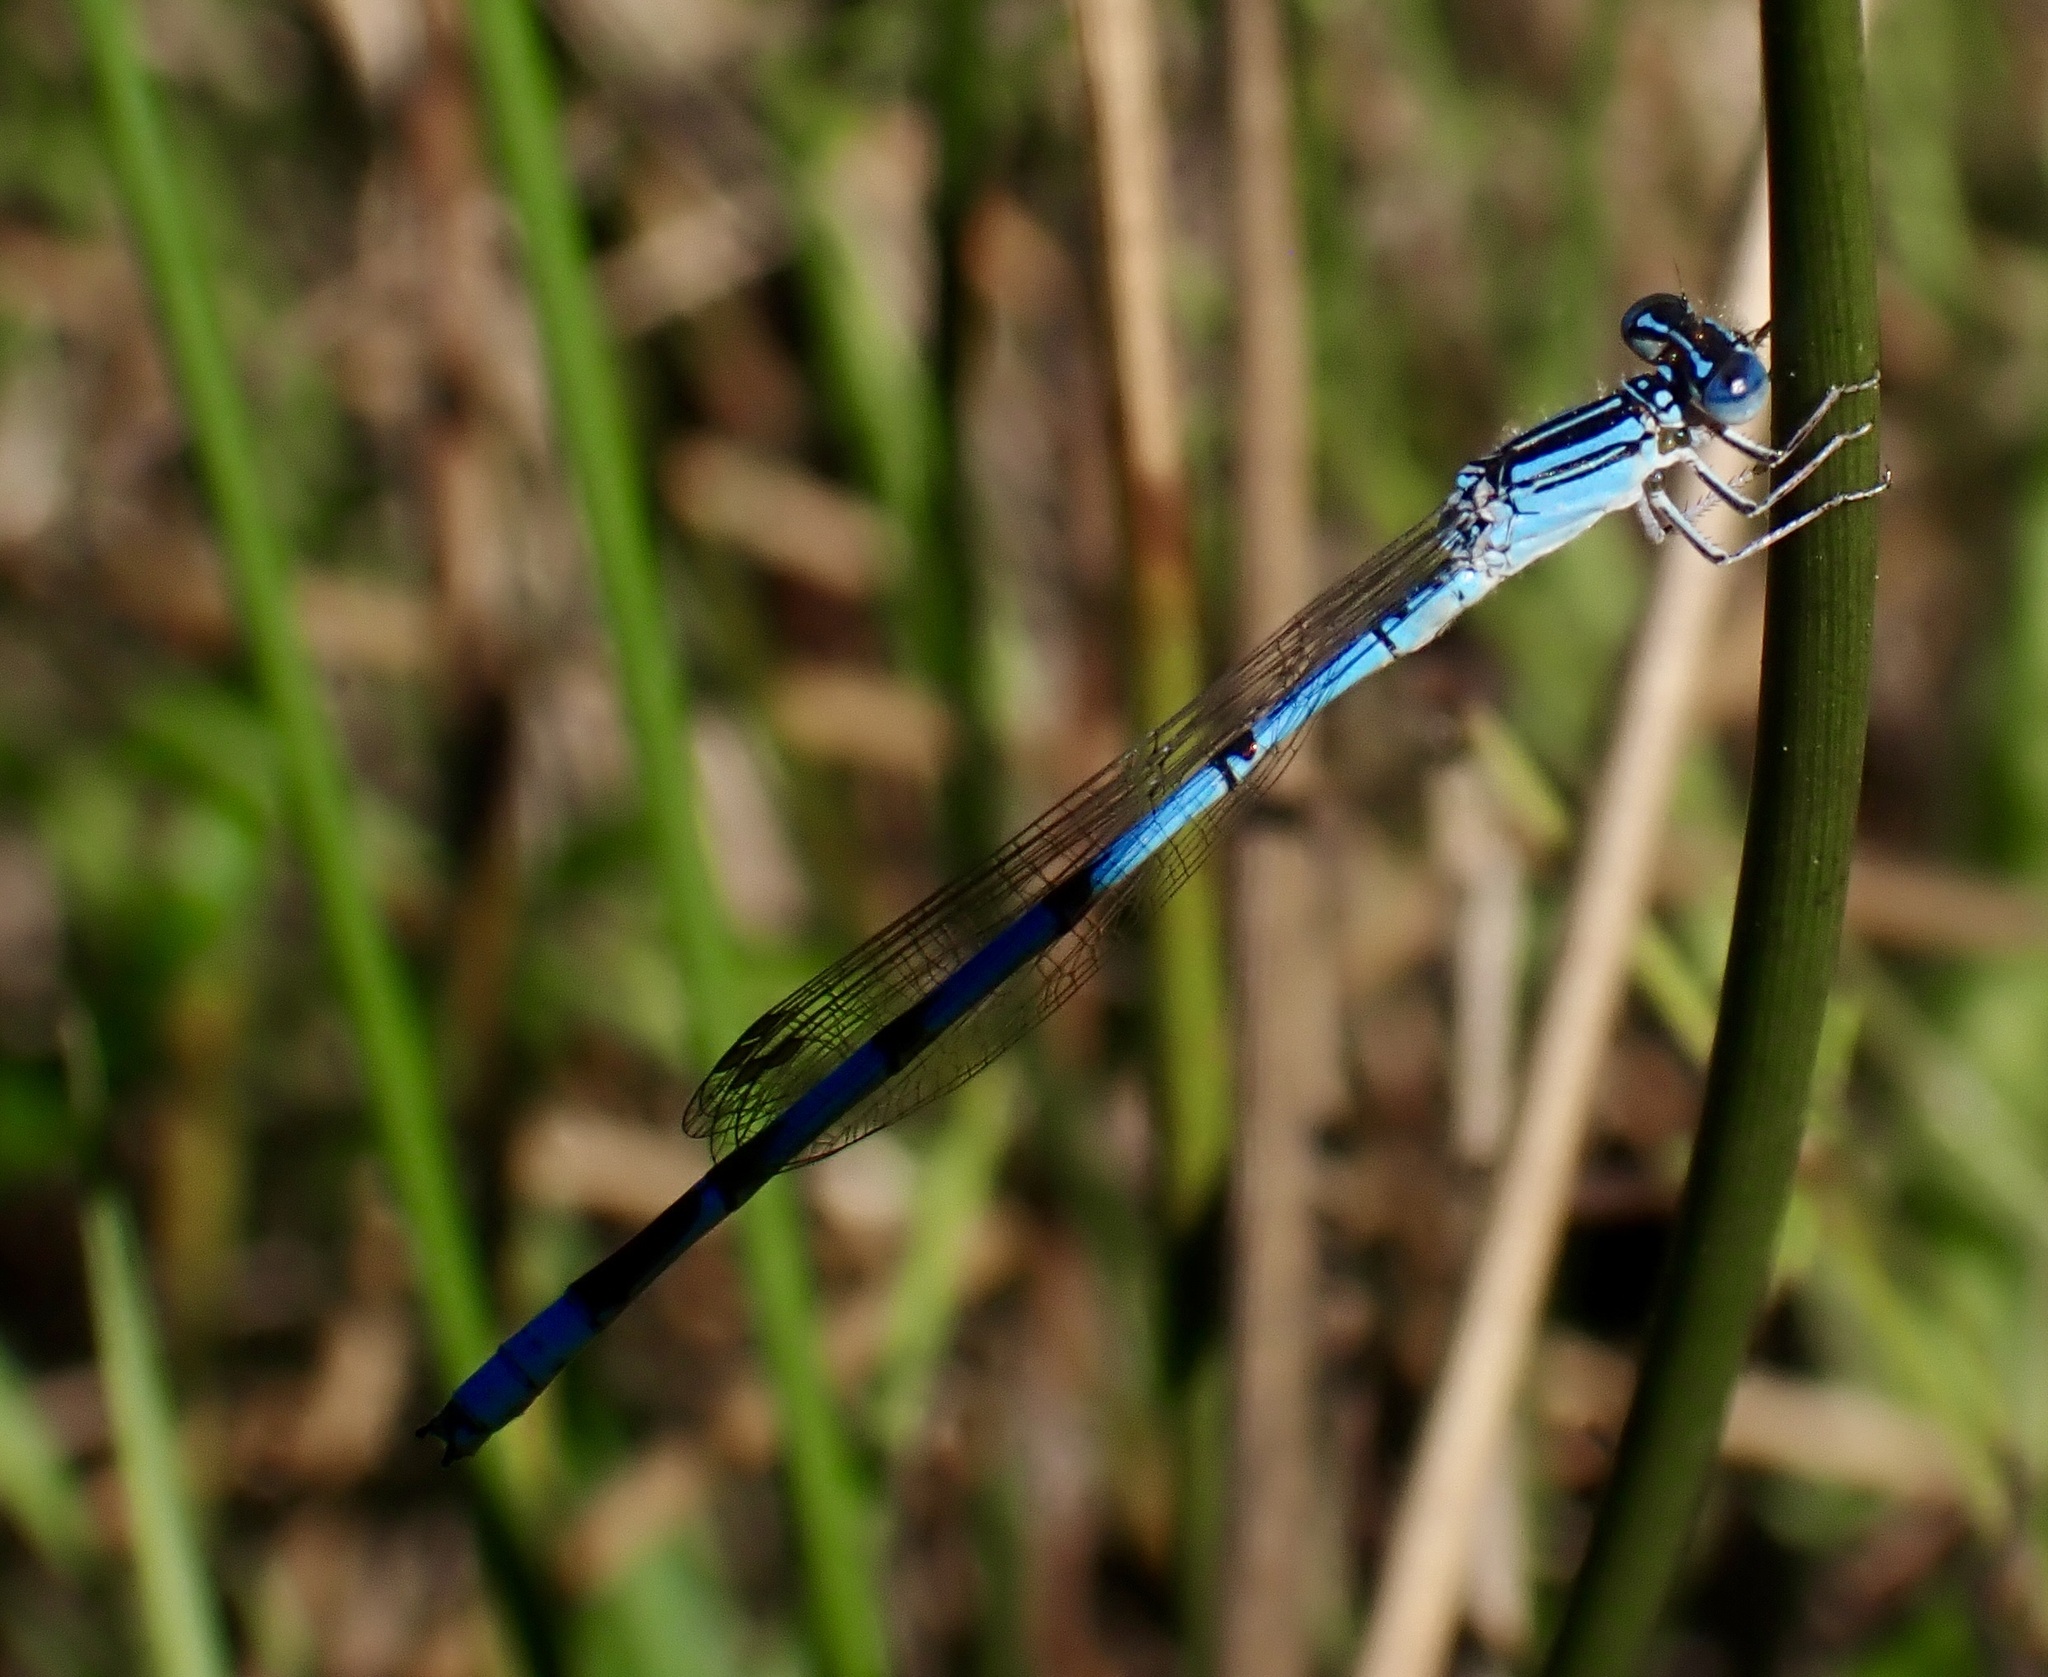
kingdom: Animalia
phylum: Arthropoda
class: Insecta
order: Odonata
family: Coenagrionidae
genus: Enallagma
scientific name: Enallagma basidens
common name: Double-striped bluet
